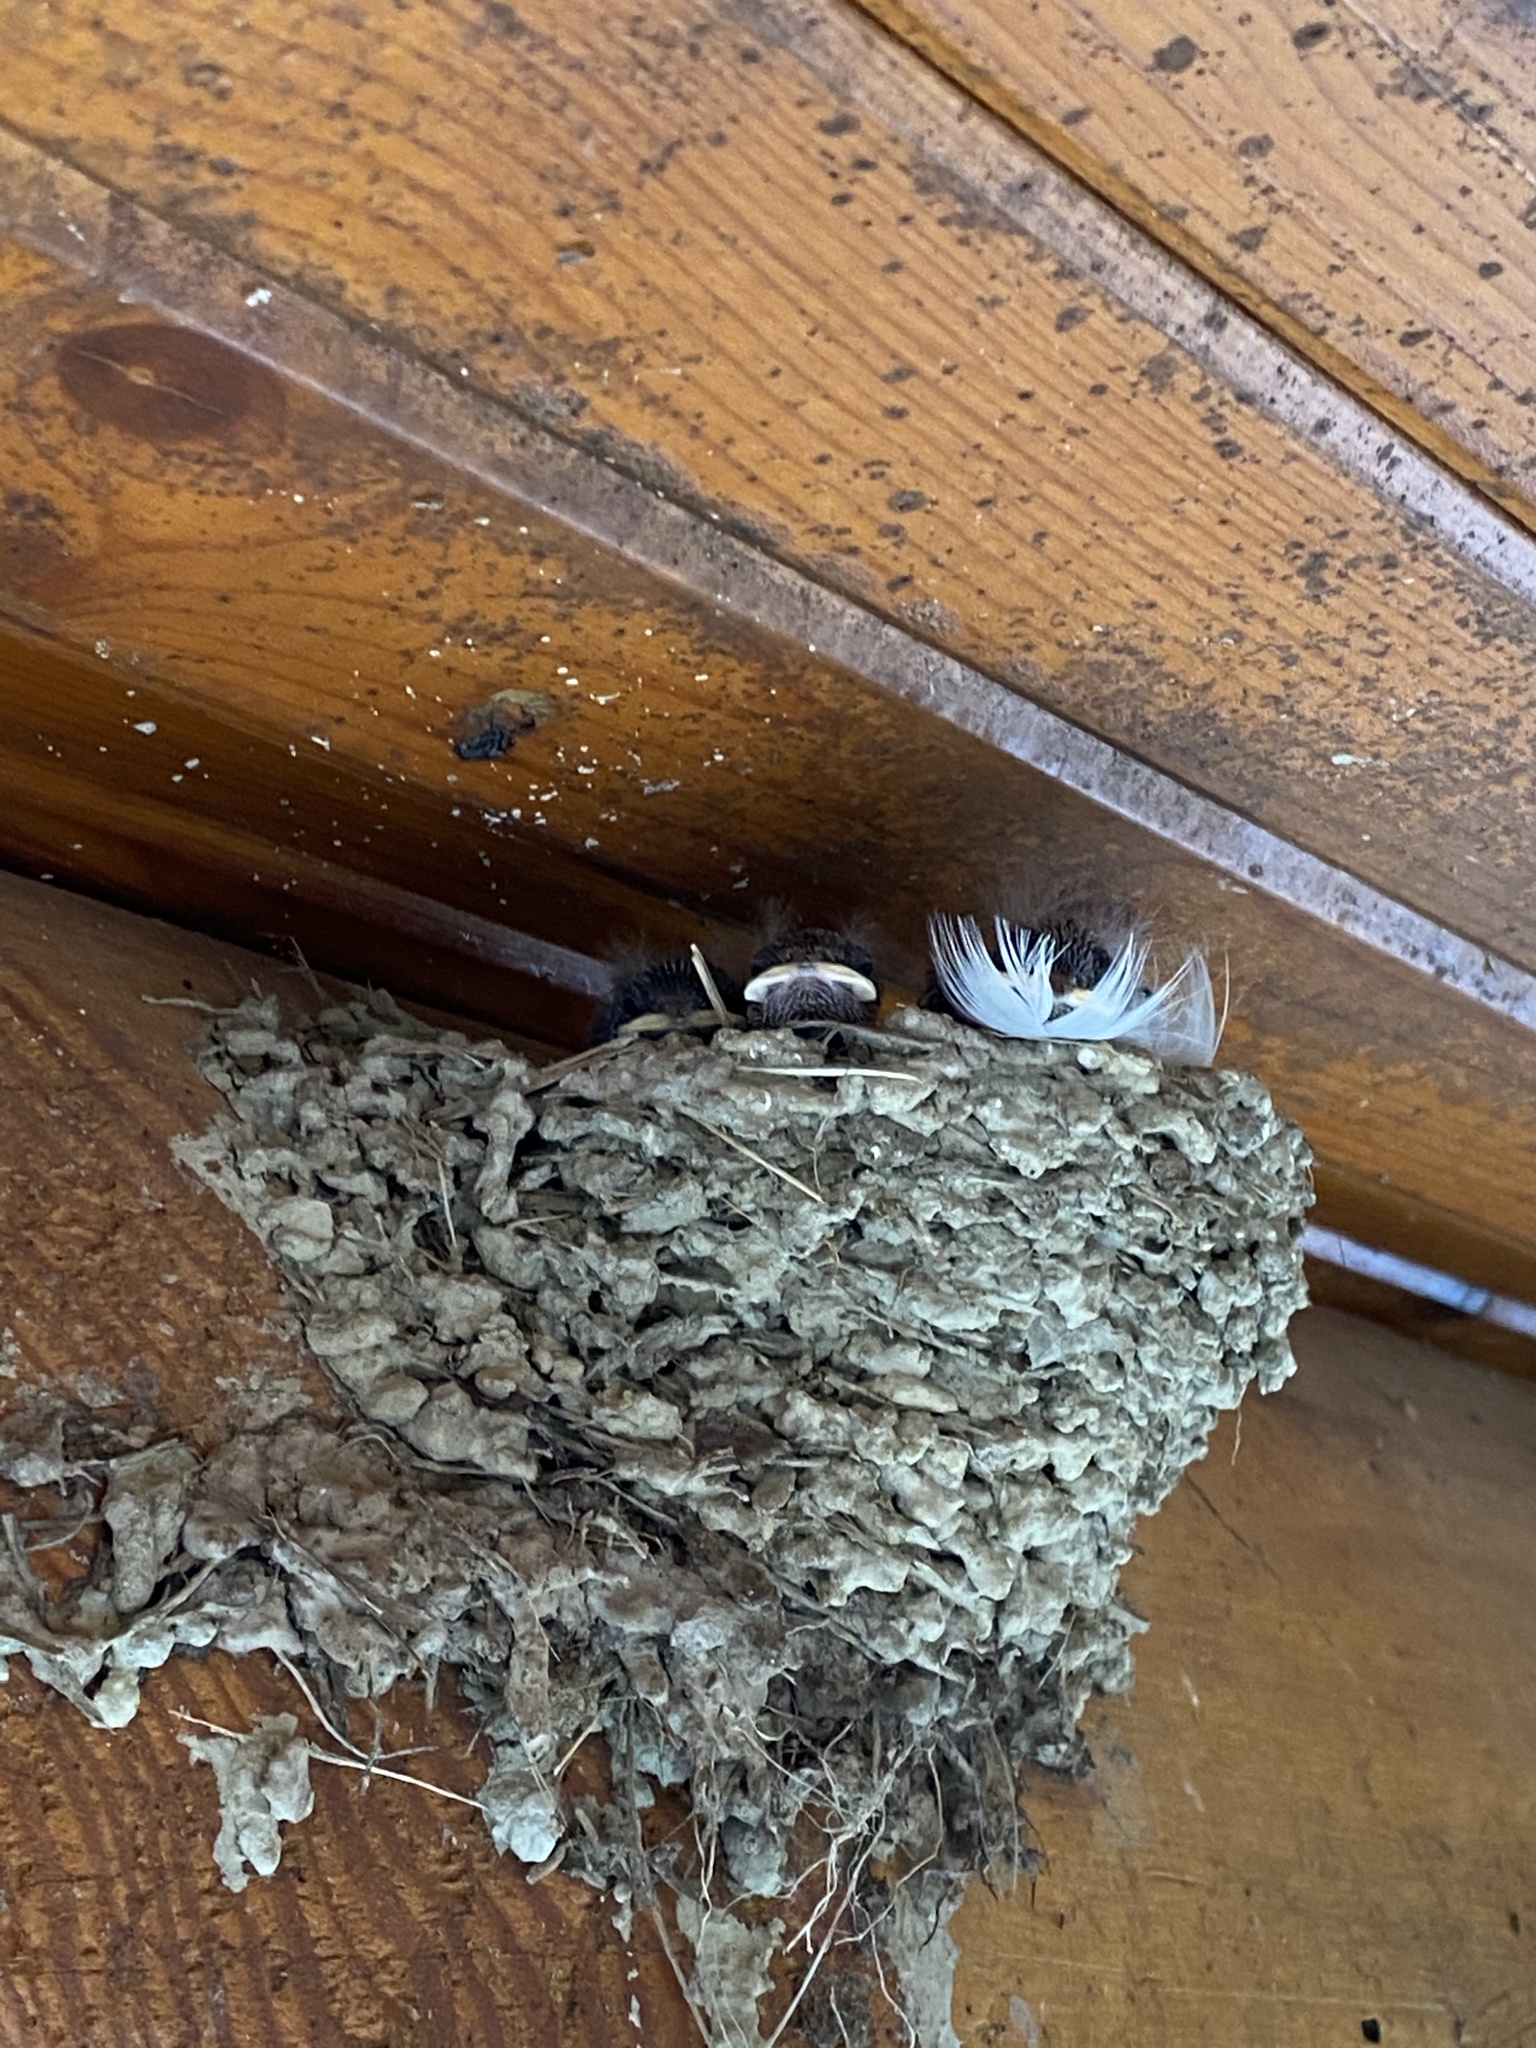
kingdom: Animalia
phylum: Chordata
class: Aves
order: Passeriformes
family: Hirundinidae
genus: Hirundo
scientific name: Hirundo rustica
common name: Barn swallow
